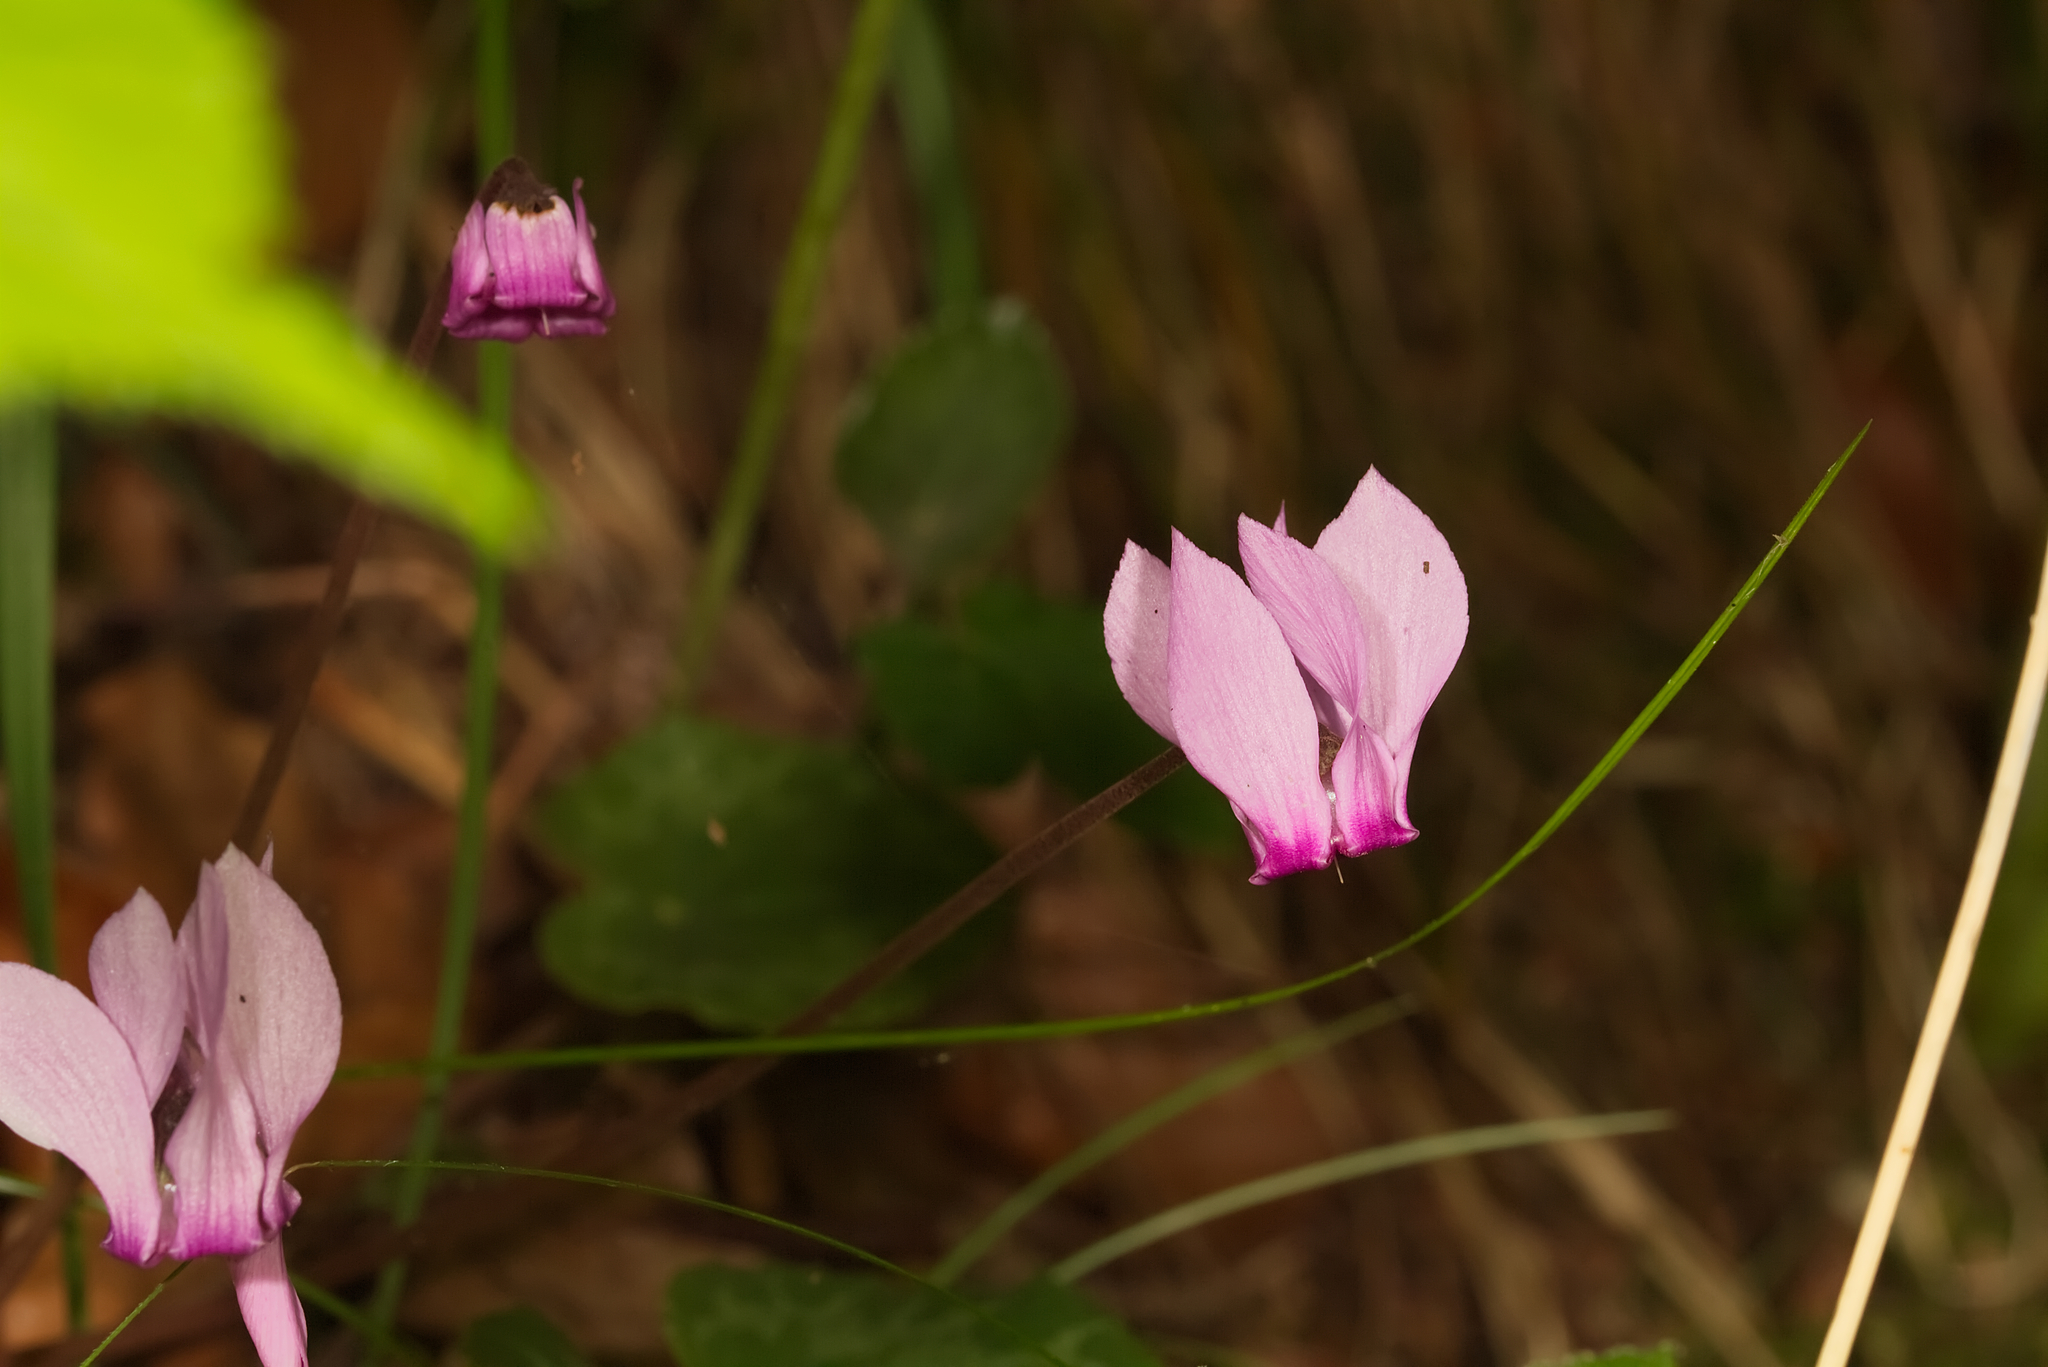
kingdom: Plantae
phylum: Tracheophyta
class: Magnoliopsida
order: Ericales
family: Primulaceae
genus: Cyclamen
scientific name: Cyclamen purpurascens
